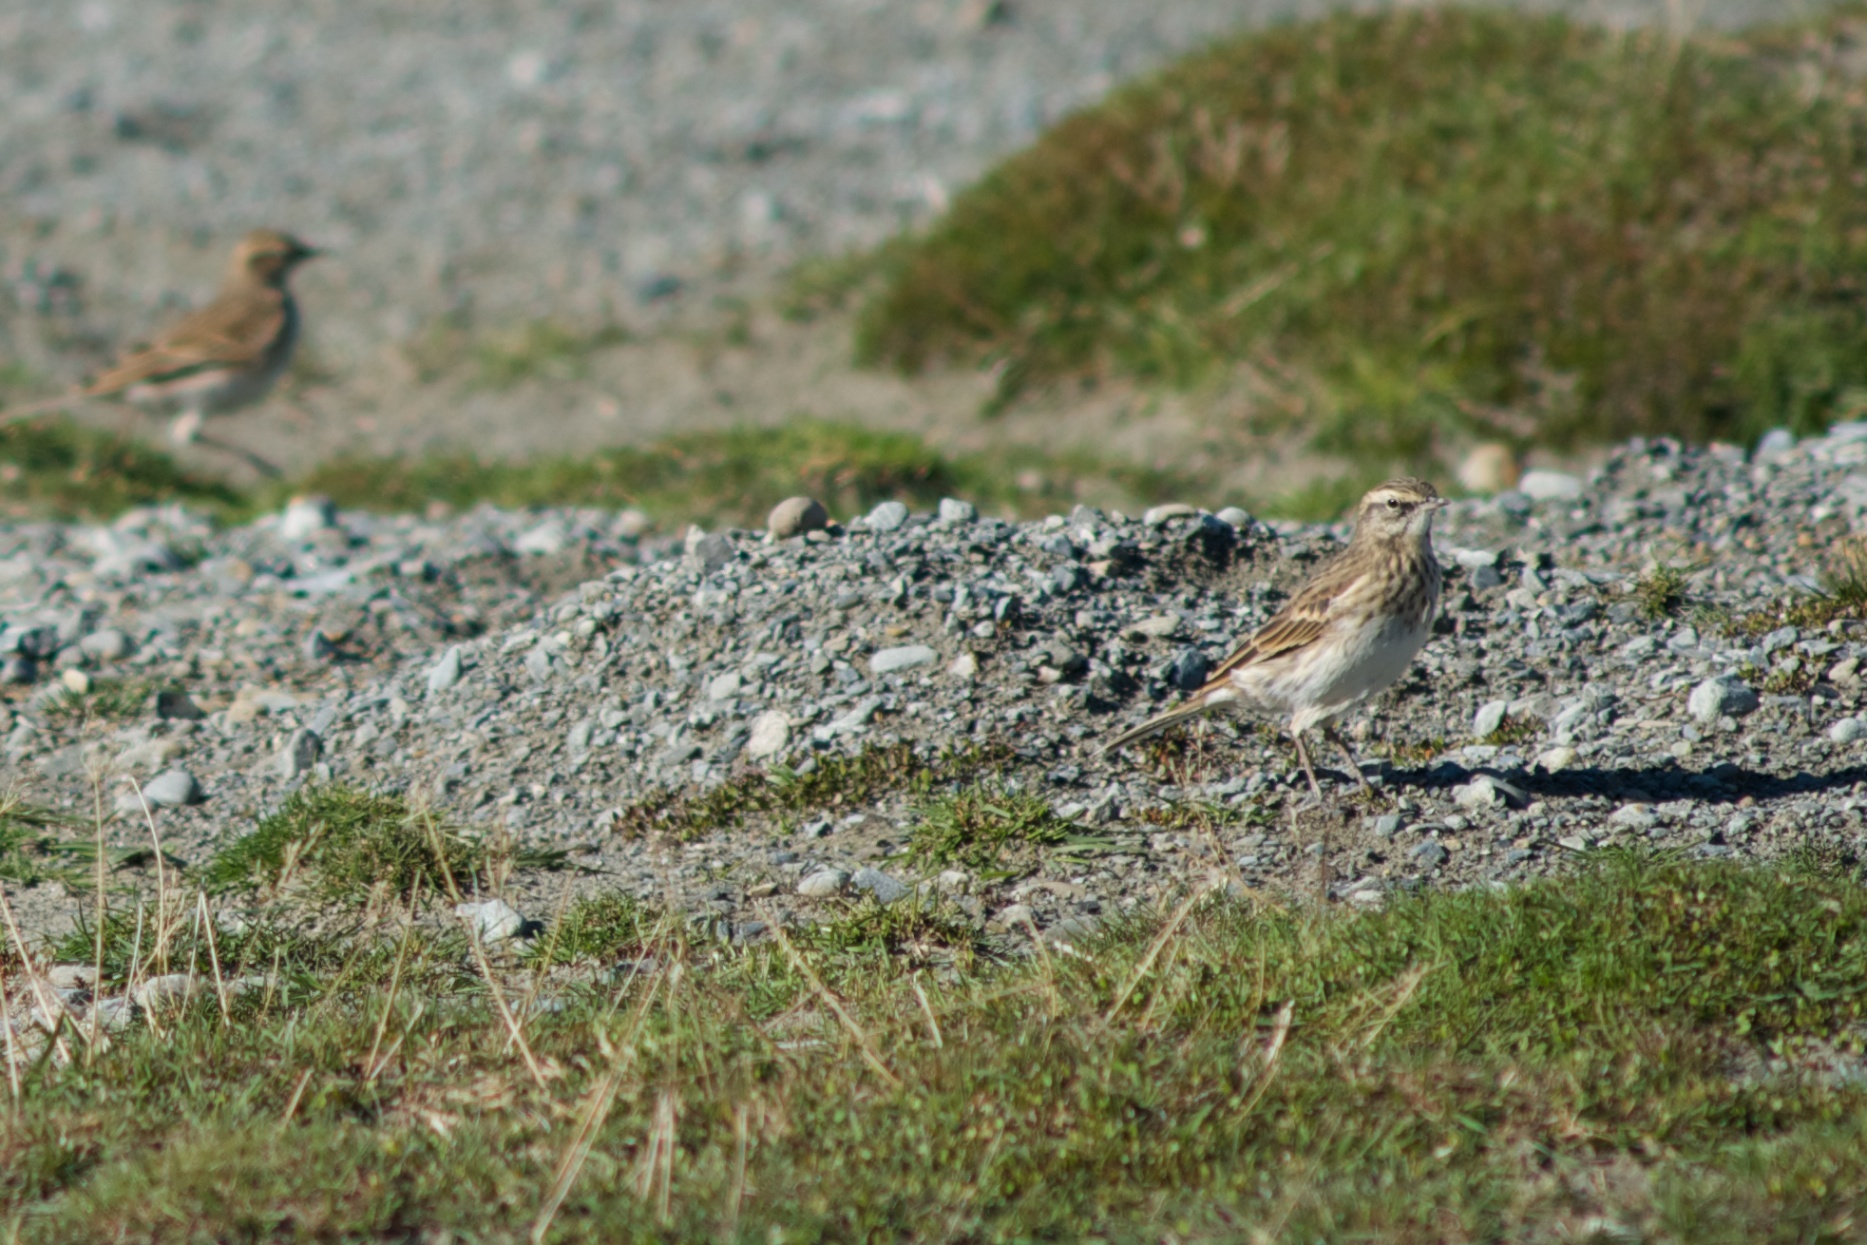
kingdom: Animalia
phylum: Chordata
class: Aves
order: Passeriformes
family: Motacillidae
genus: Anthus
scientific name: Anthus novaeseelandiae
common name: New zealand pipit
